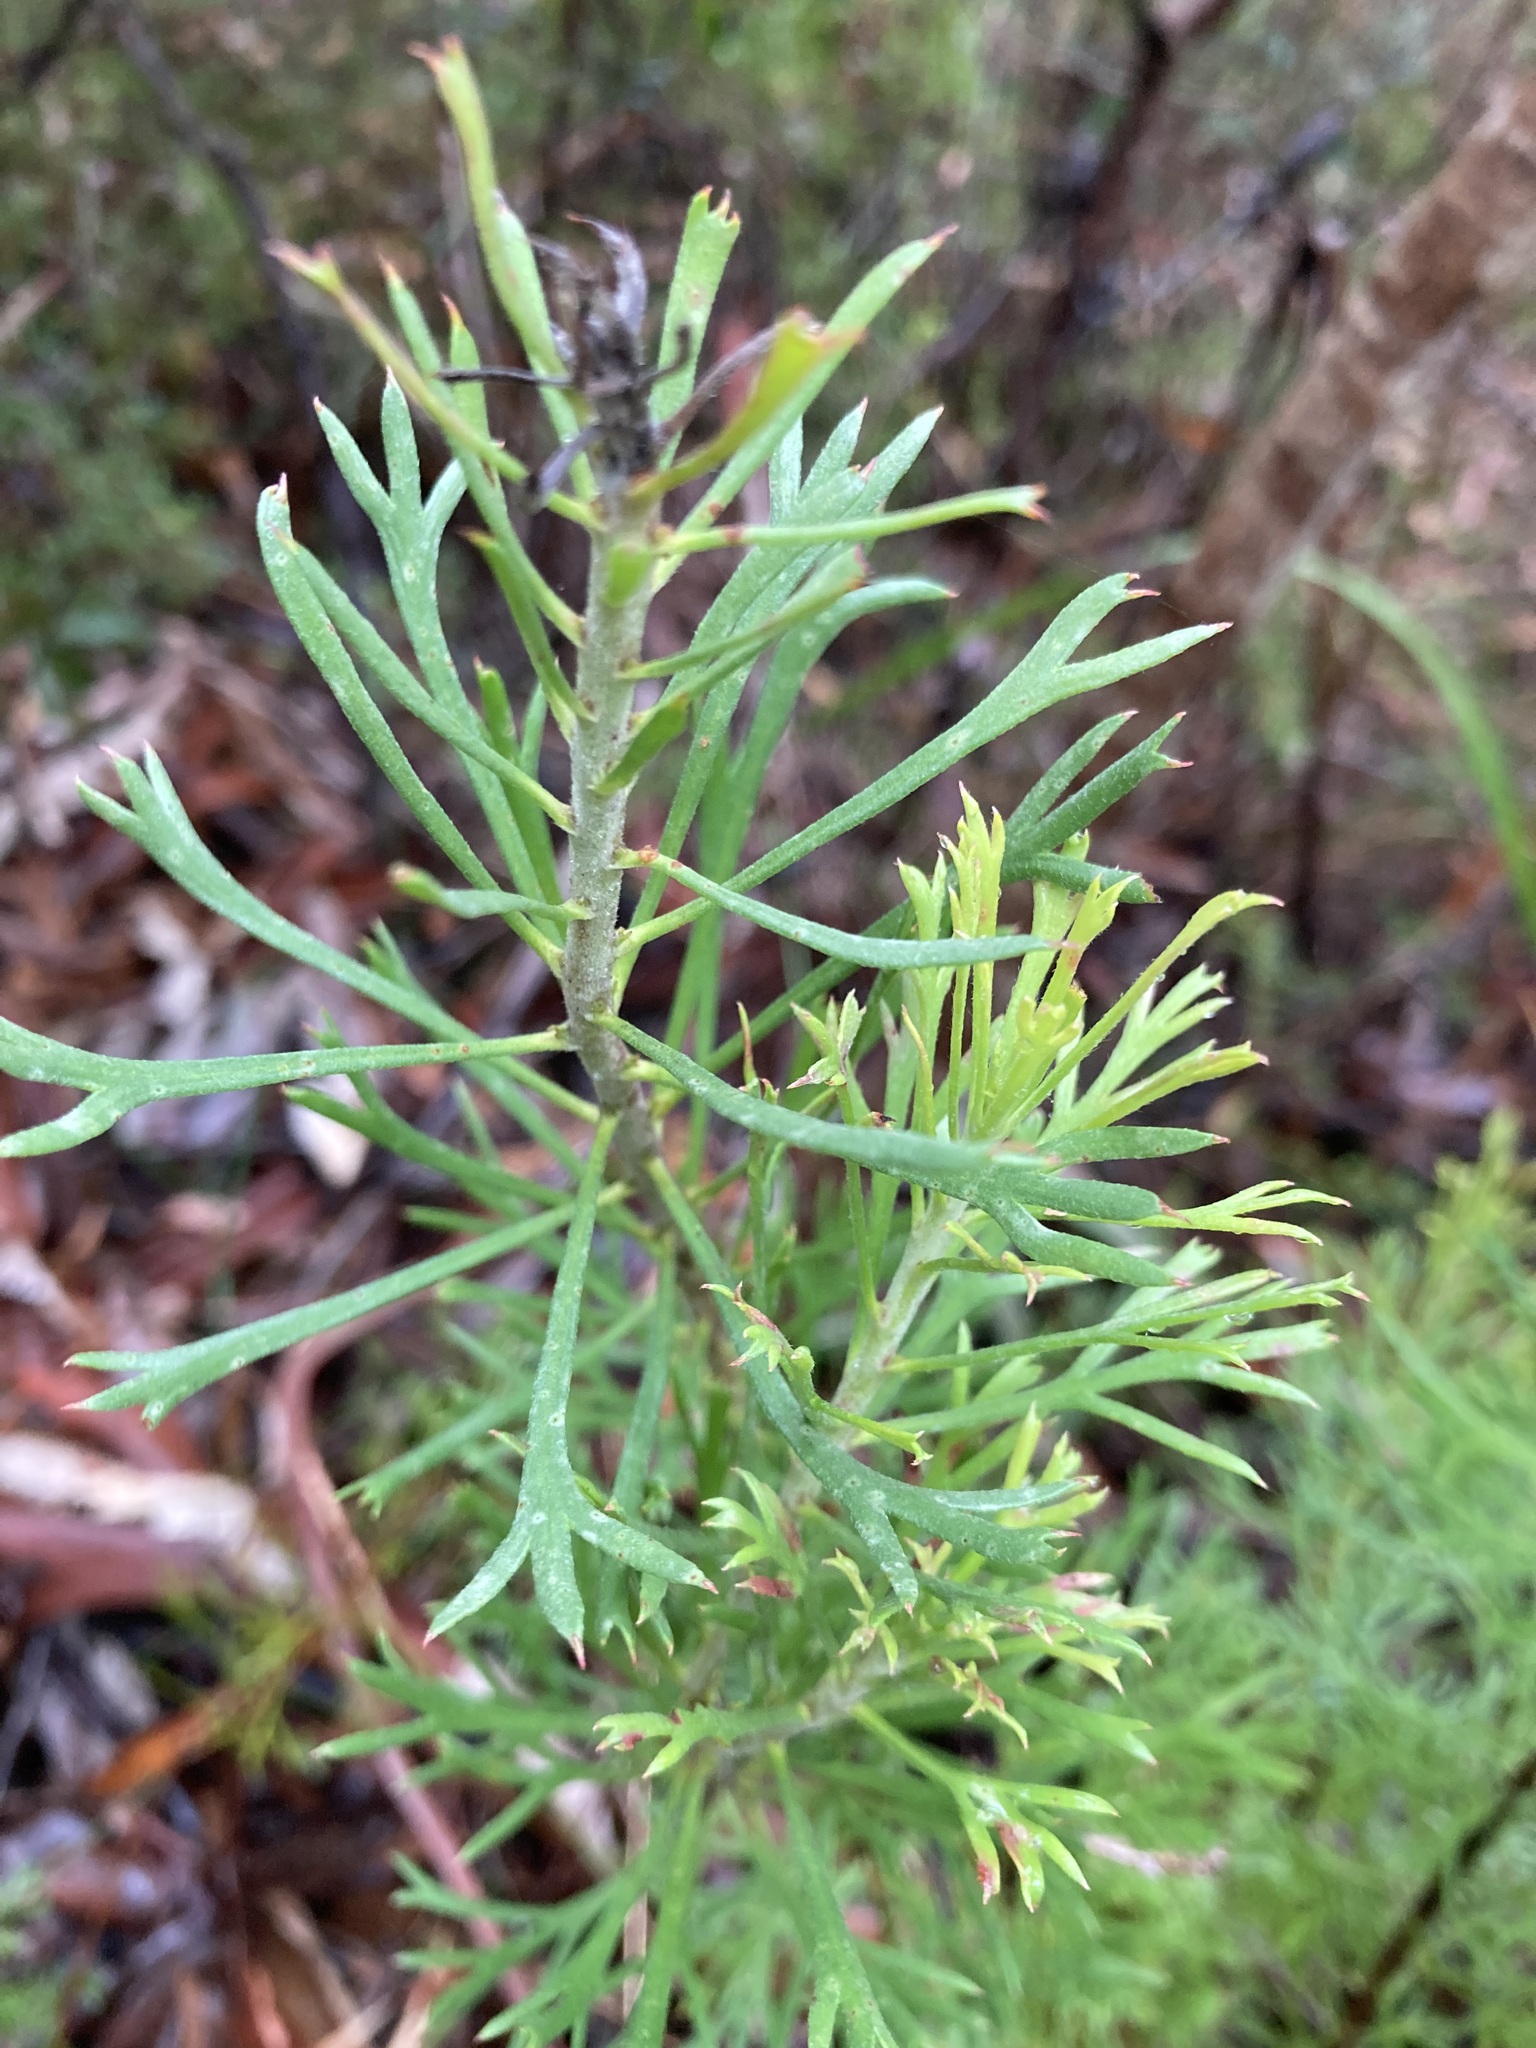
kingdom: Plantae
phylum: Tracheophyta
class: Magnoliopsida
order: Proteales
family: Proteaceae
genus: Isopogon
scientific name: Isopogon anemonifolius
